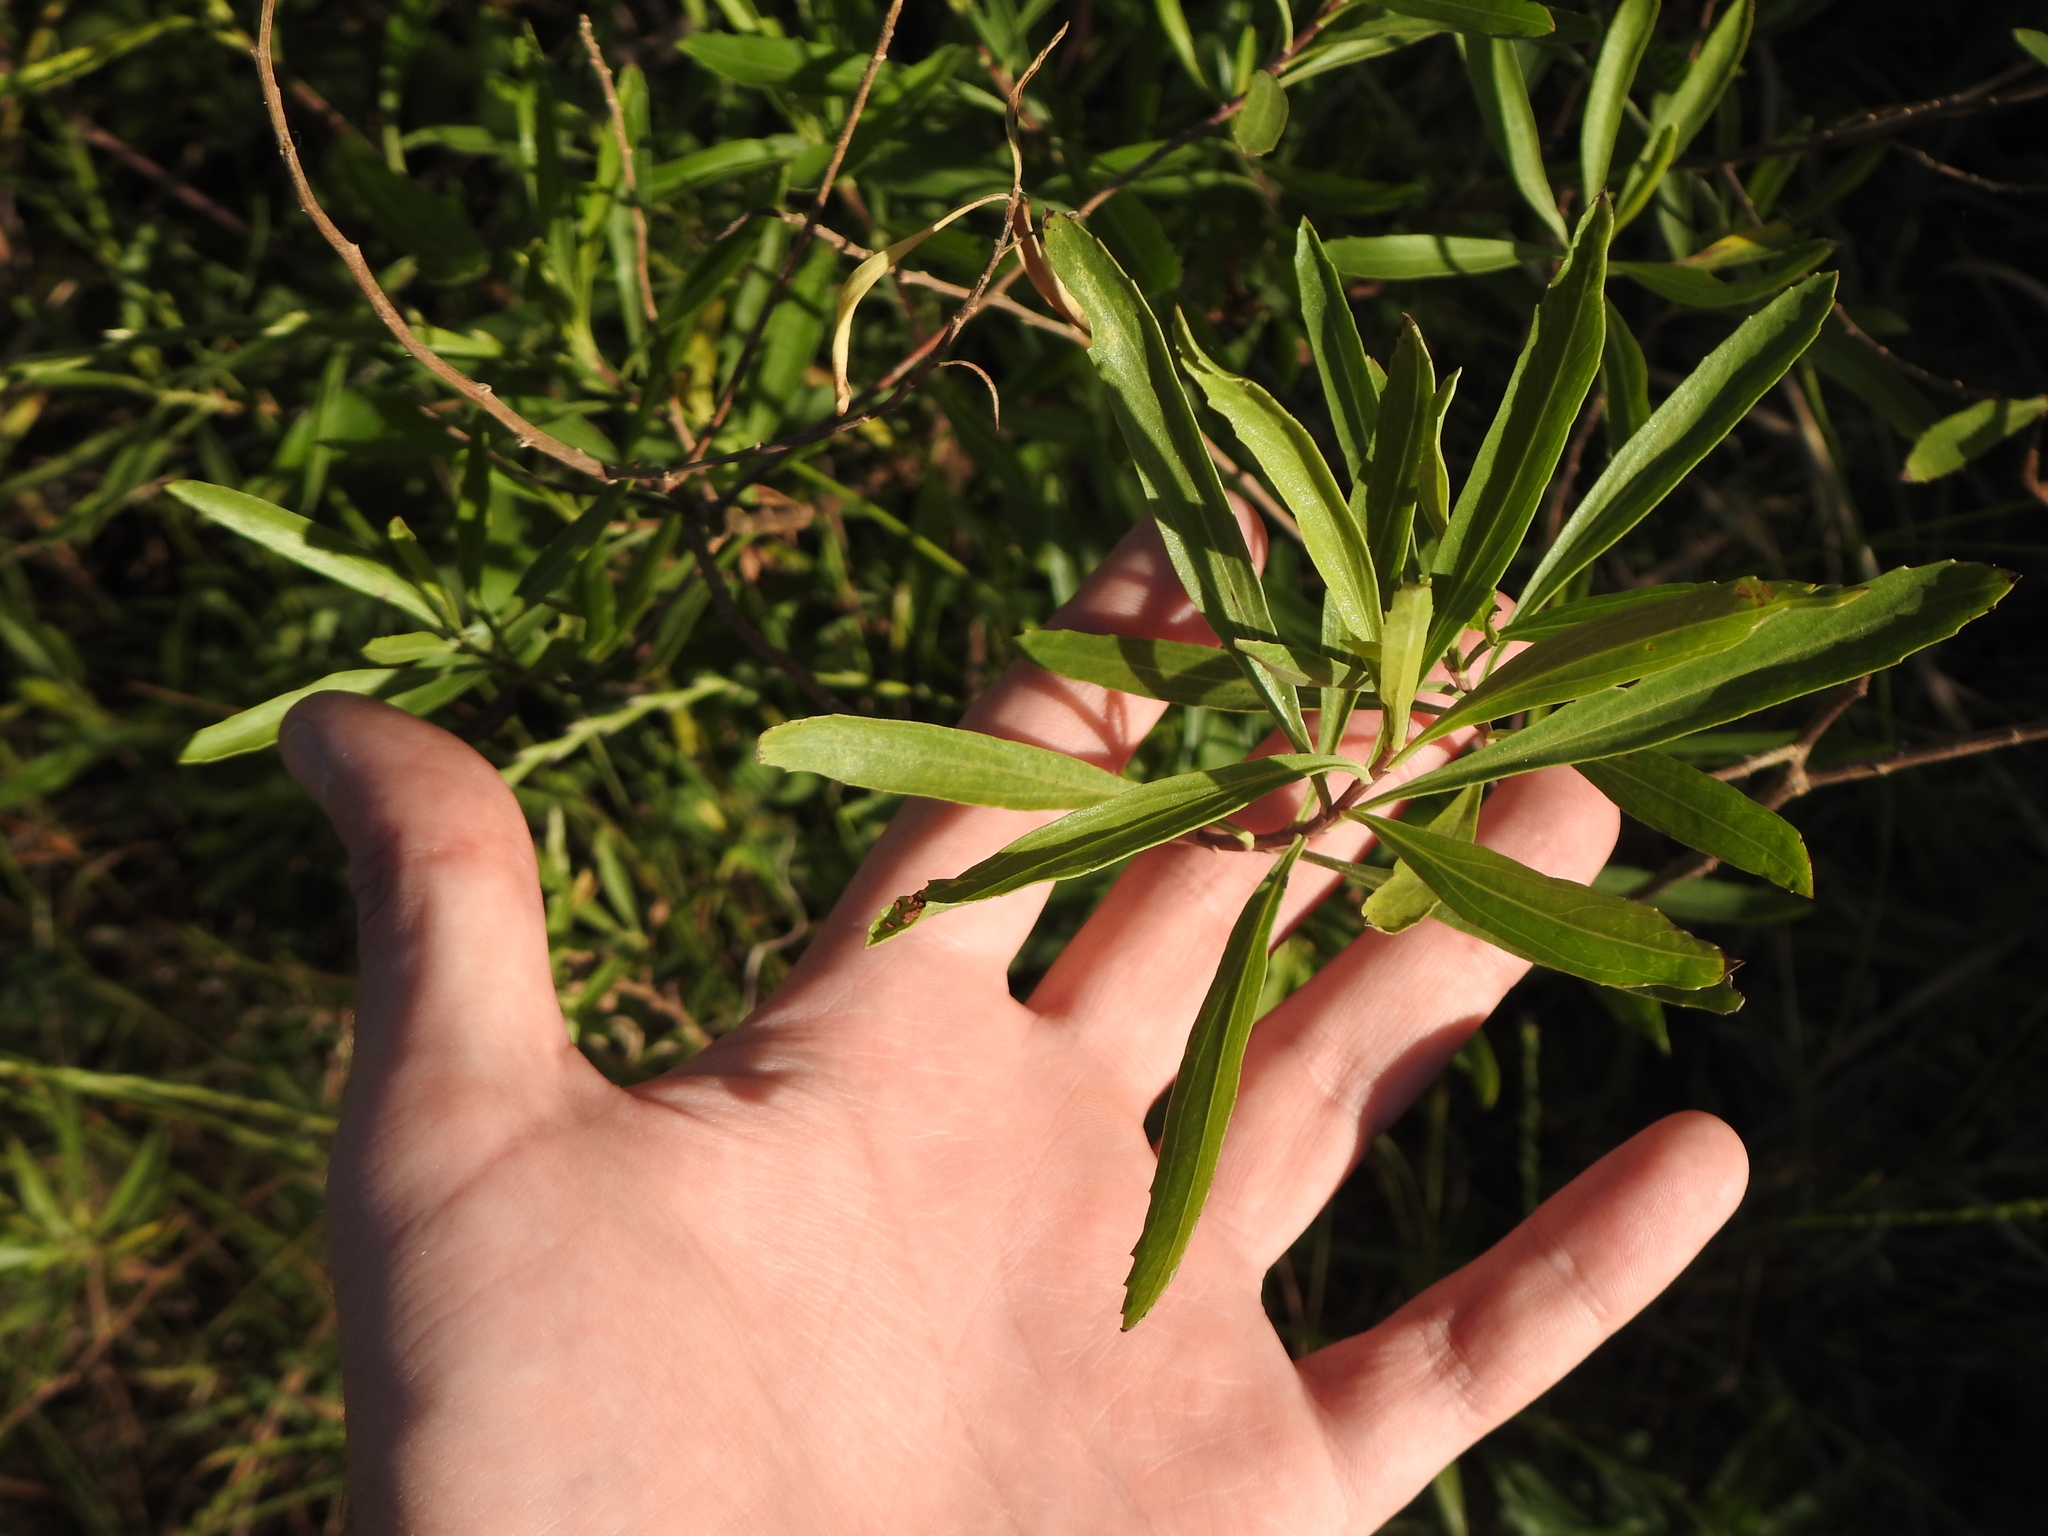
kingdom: Plantae
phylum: Tracheophyta
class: Magnoliopsida
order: Asterales
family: Asteraceae
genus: Baccharis
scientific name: Baccharis salicifolia
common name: Sticky baccharis
